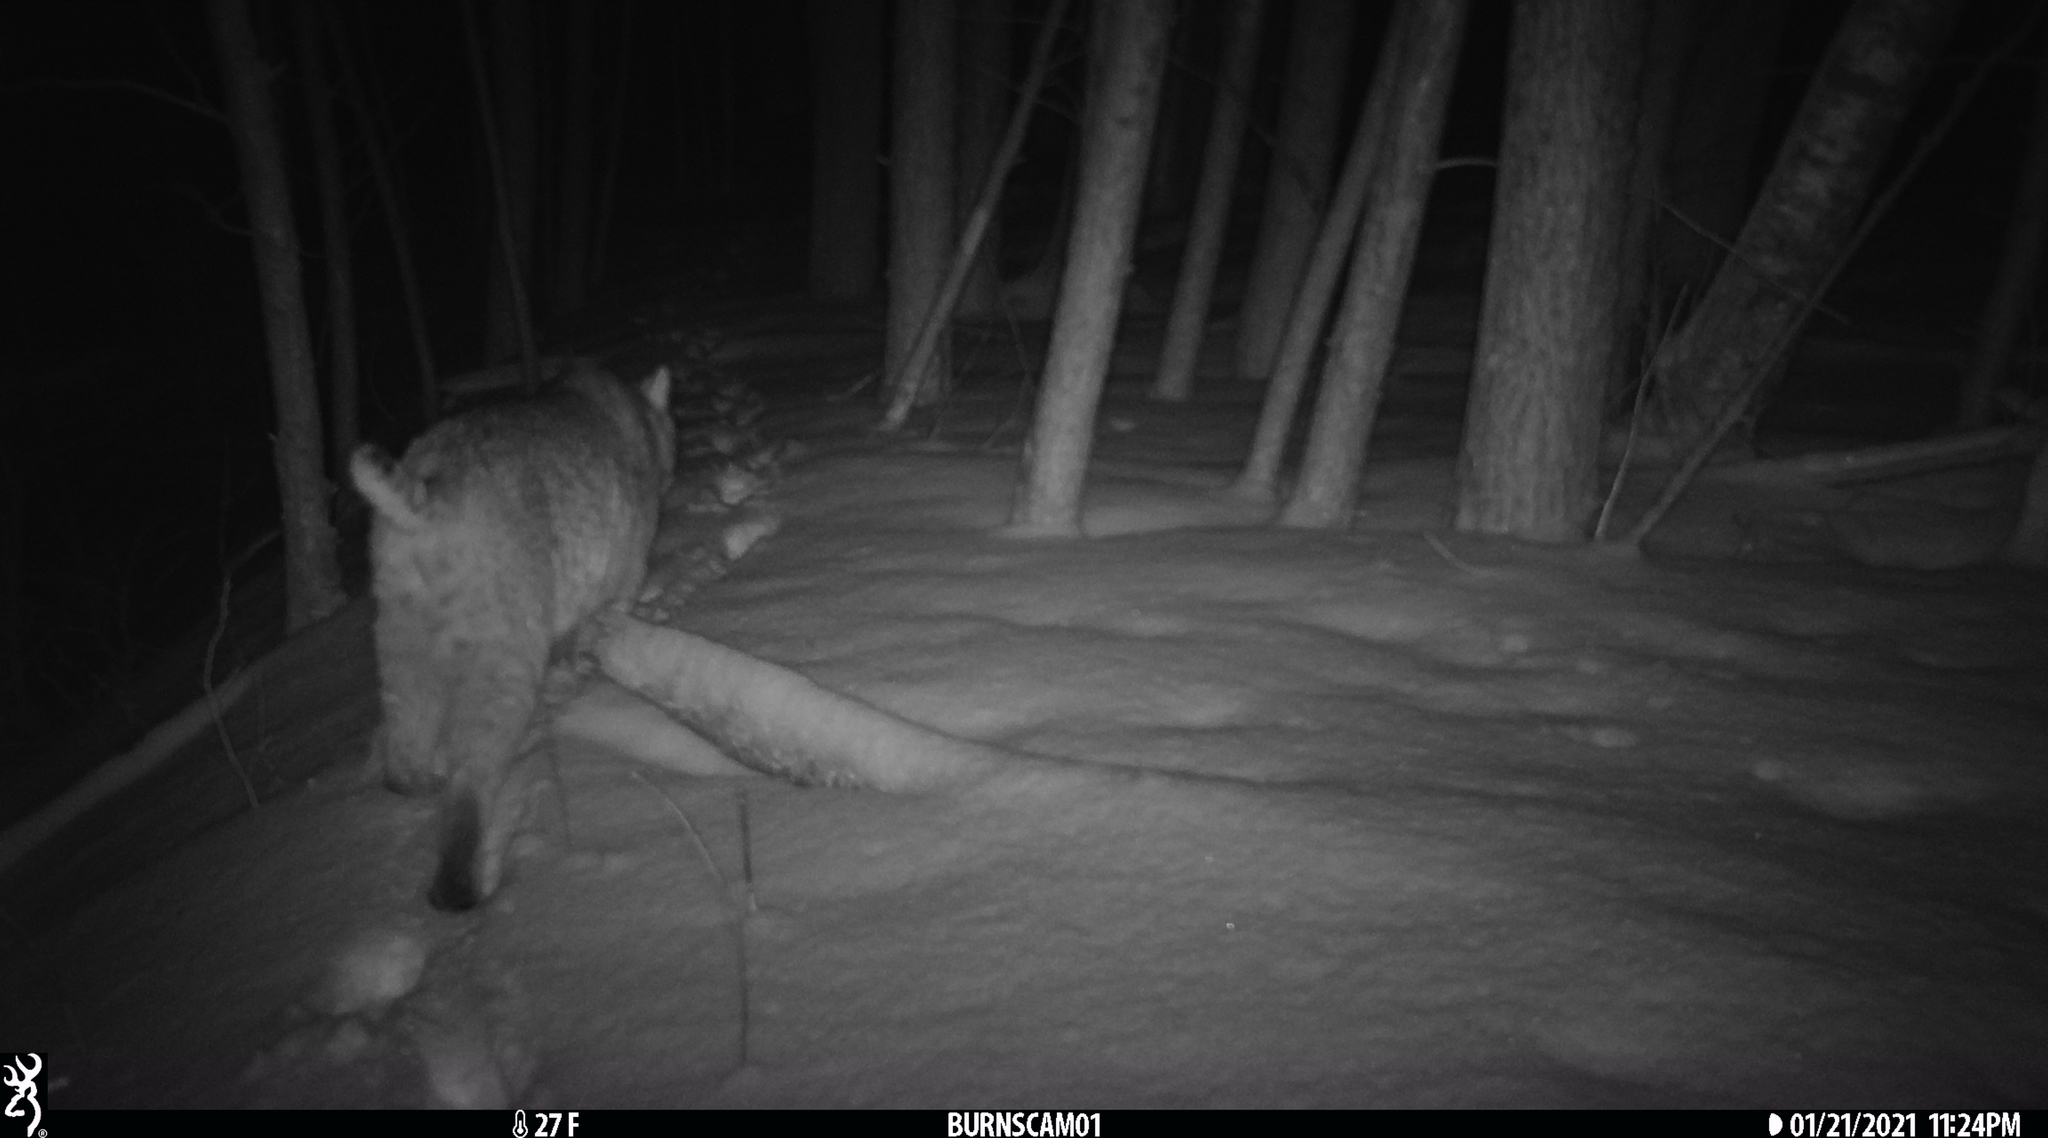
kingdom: Animalia
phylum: Chordata
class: Mammalia
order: Carnivora
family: Felidae
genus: Lynx
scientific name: Lynx rufus
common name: Bobcat
